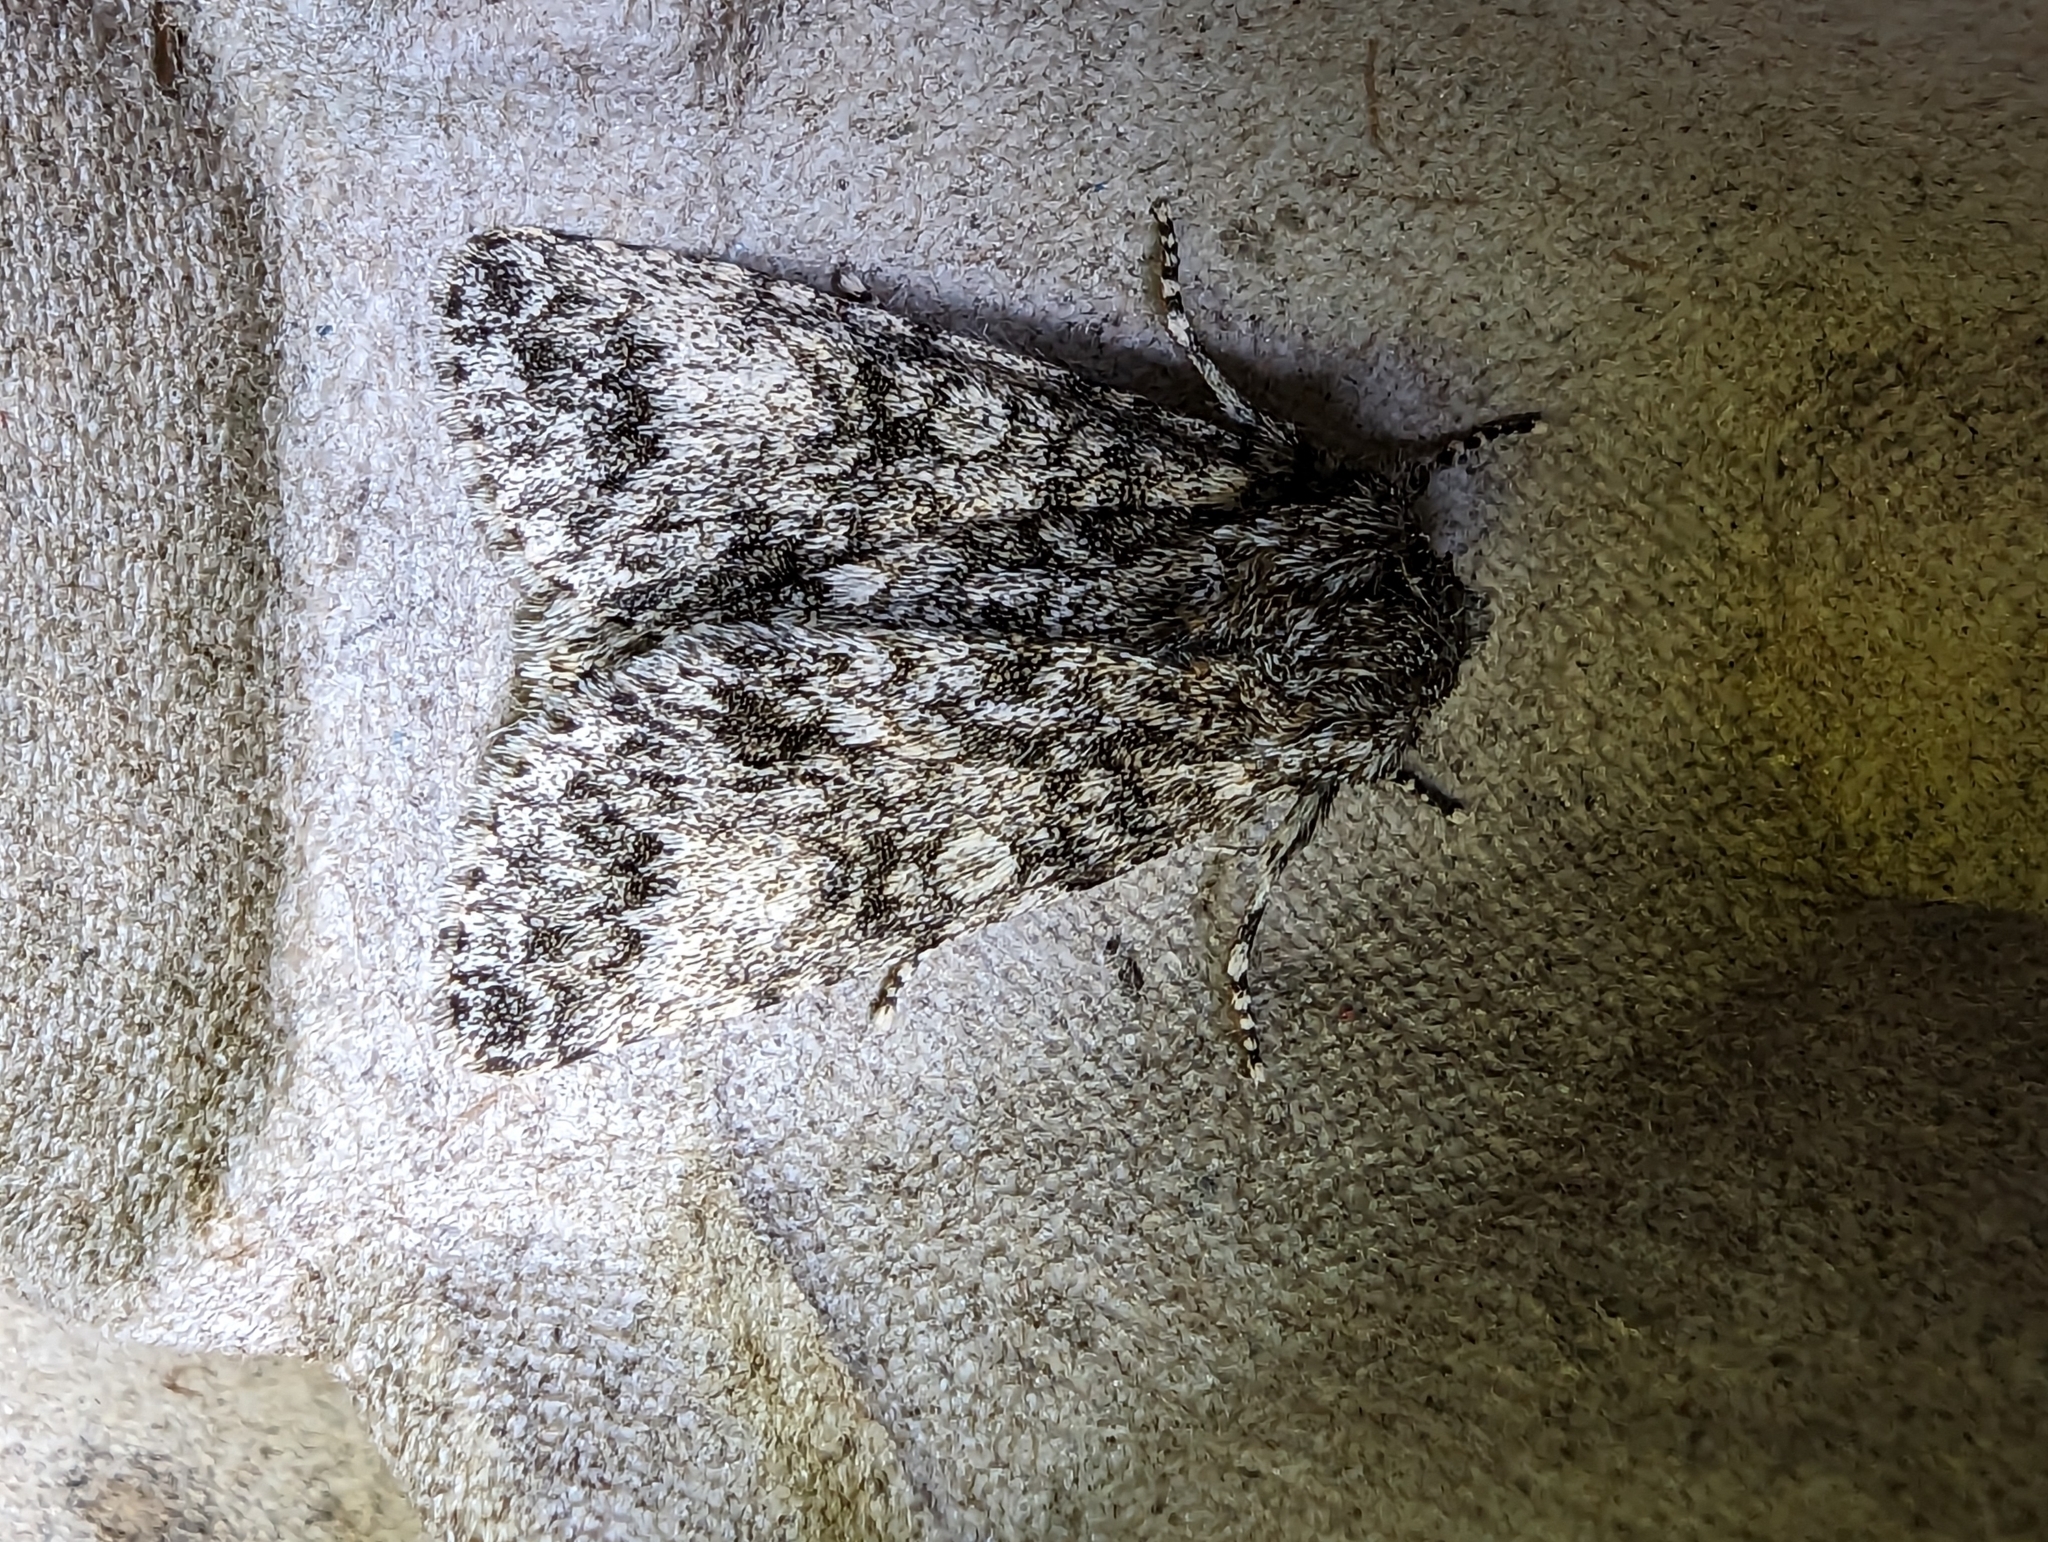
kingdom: Animalia
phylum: Arthropoda
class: Insecta
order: Lepidoptera
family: Noctuidae
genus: Acronicta
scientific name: Acronicta megacephala
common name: Poplar grey
